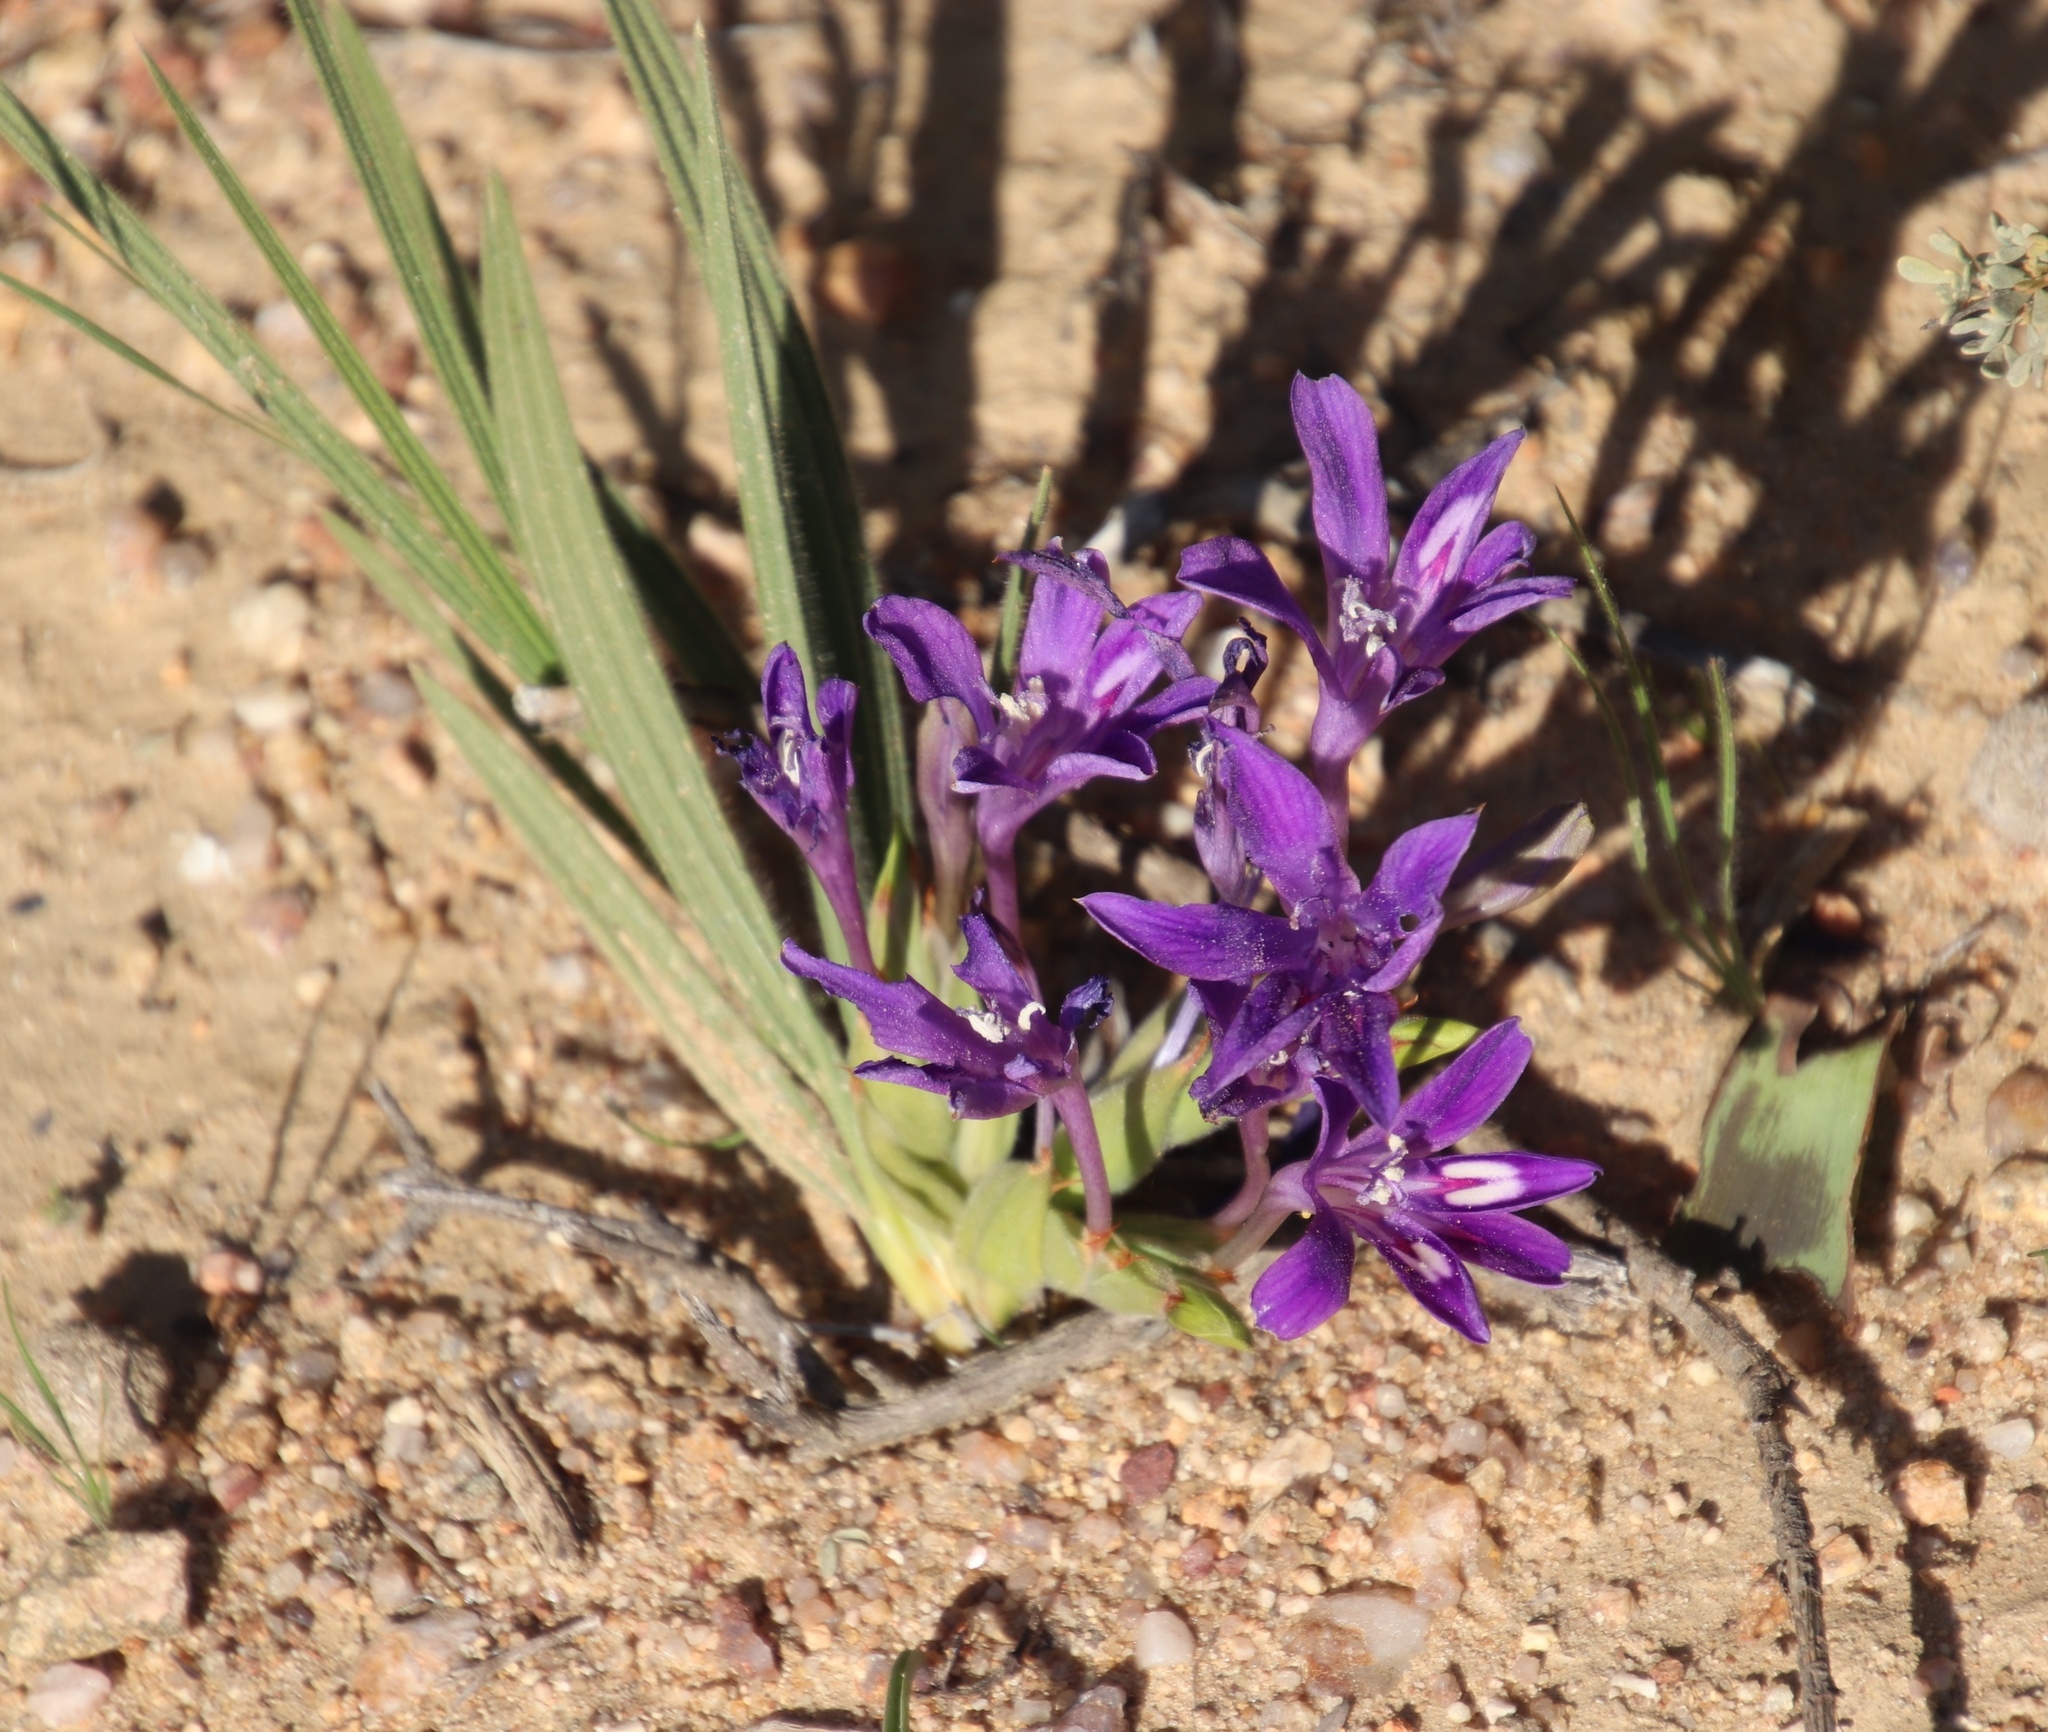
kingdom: Plantae
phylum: Tracheophyta
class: Liliopsida
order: Asparagales
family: Iridaceae
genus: Babiana
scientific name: Babiana curviscapa
